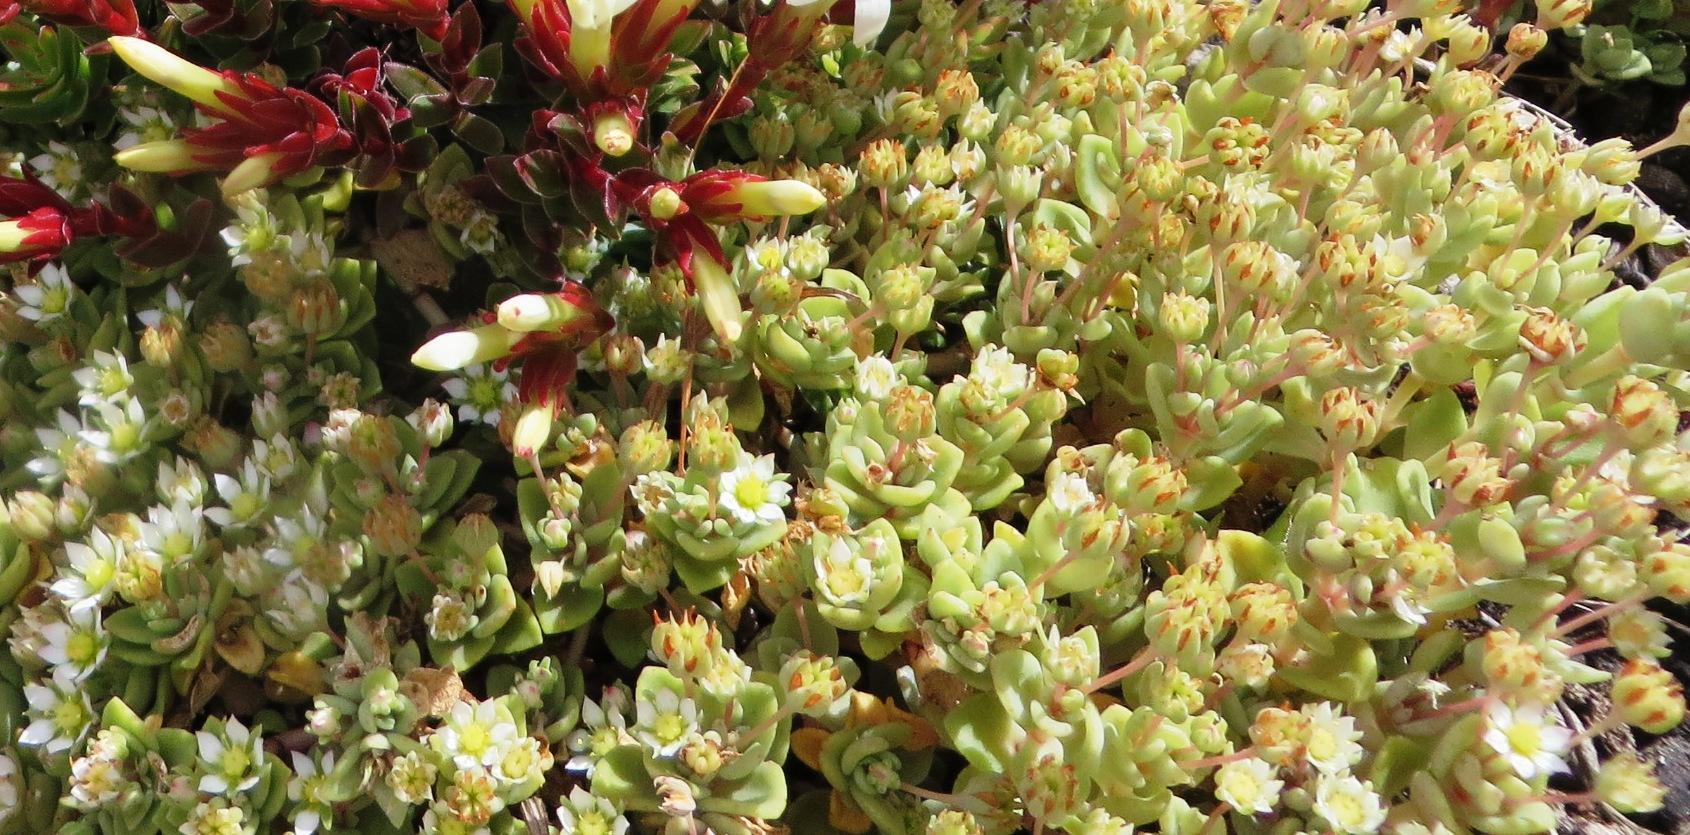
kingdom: Plantae
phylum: Tracheophyta
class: Magnoliopsida
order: Saxifragales
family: Crassulaceae
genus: Crassula
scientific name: Crassula pellucida
